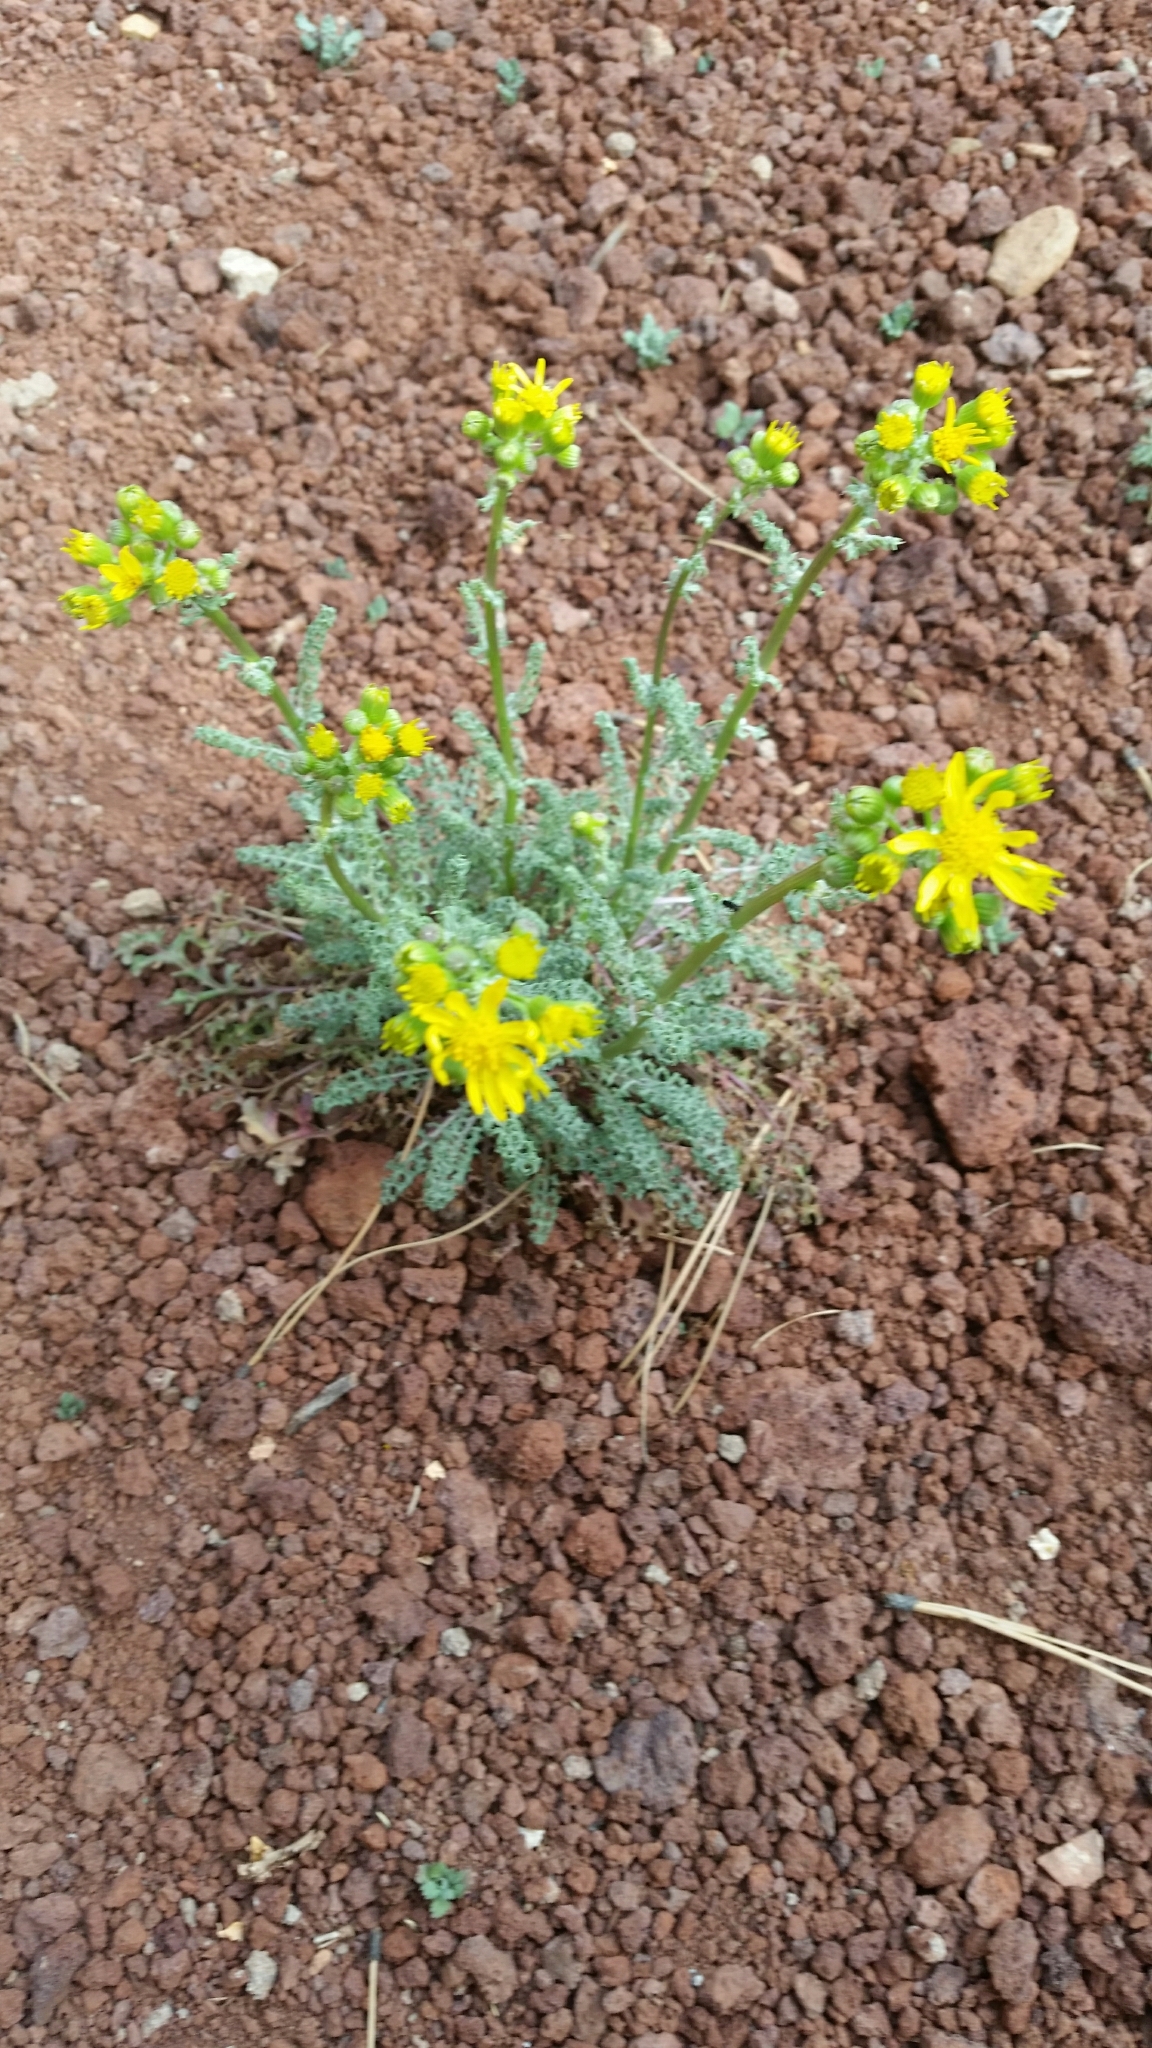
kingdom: Plantae
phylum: Tracheophyta
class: Magnoliopsida
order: Asterales
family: Asteraceae
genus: Packera
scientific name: Packera multilobata
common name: Lobe-leaf groundsel
